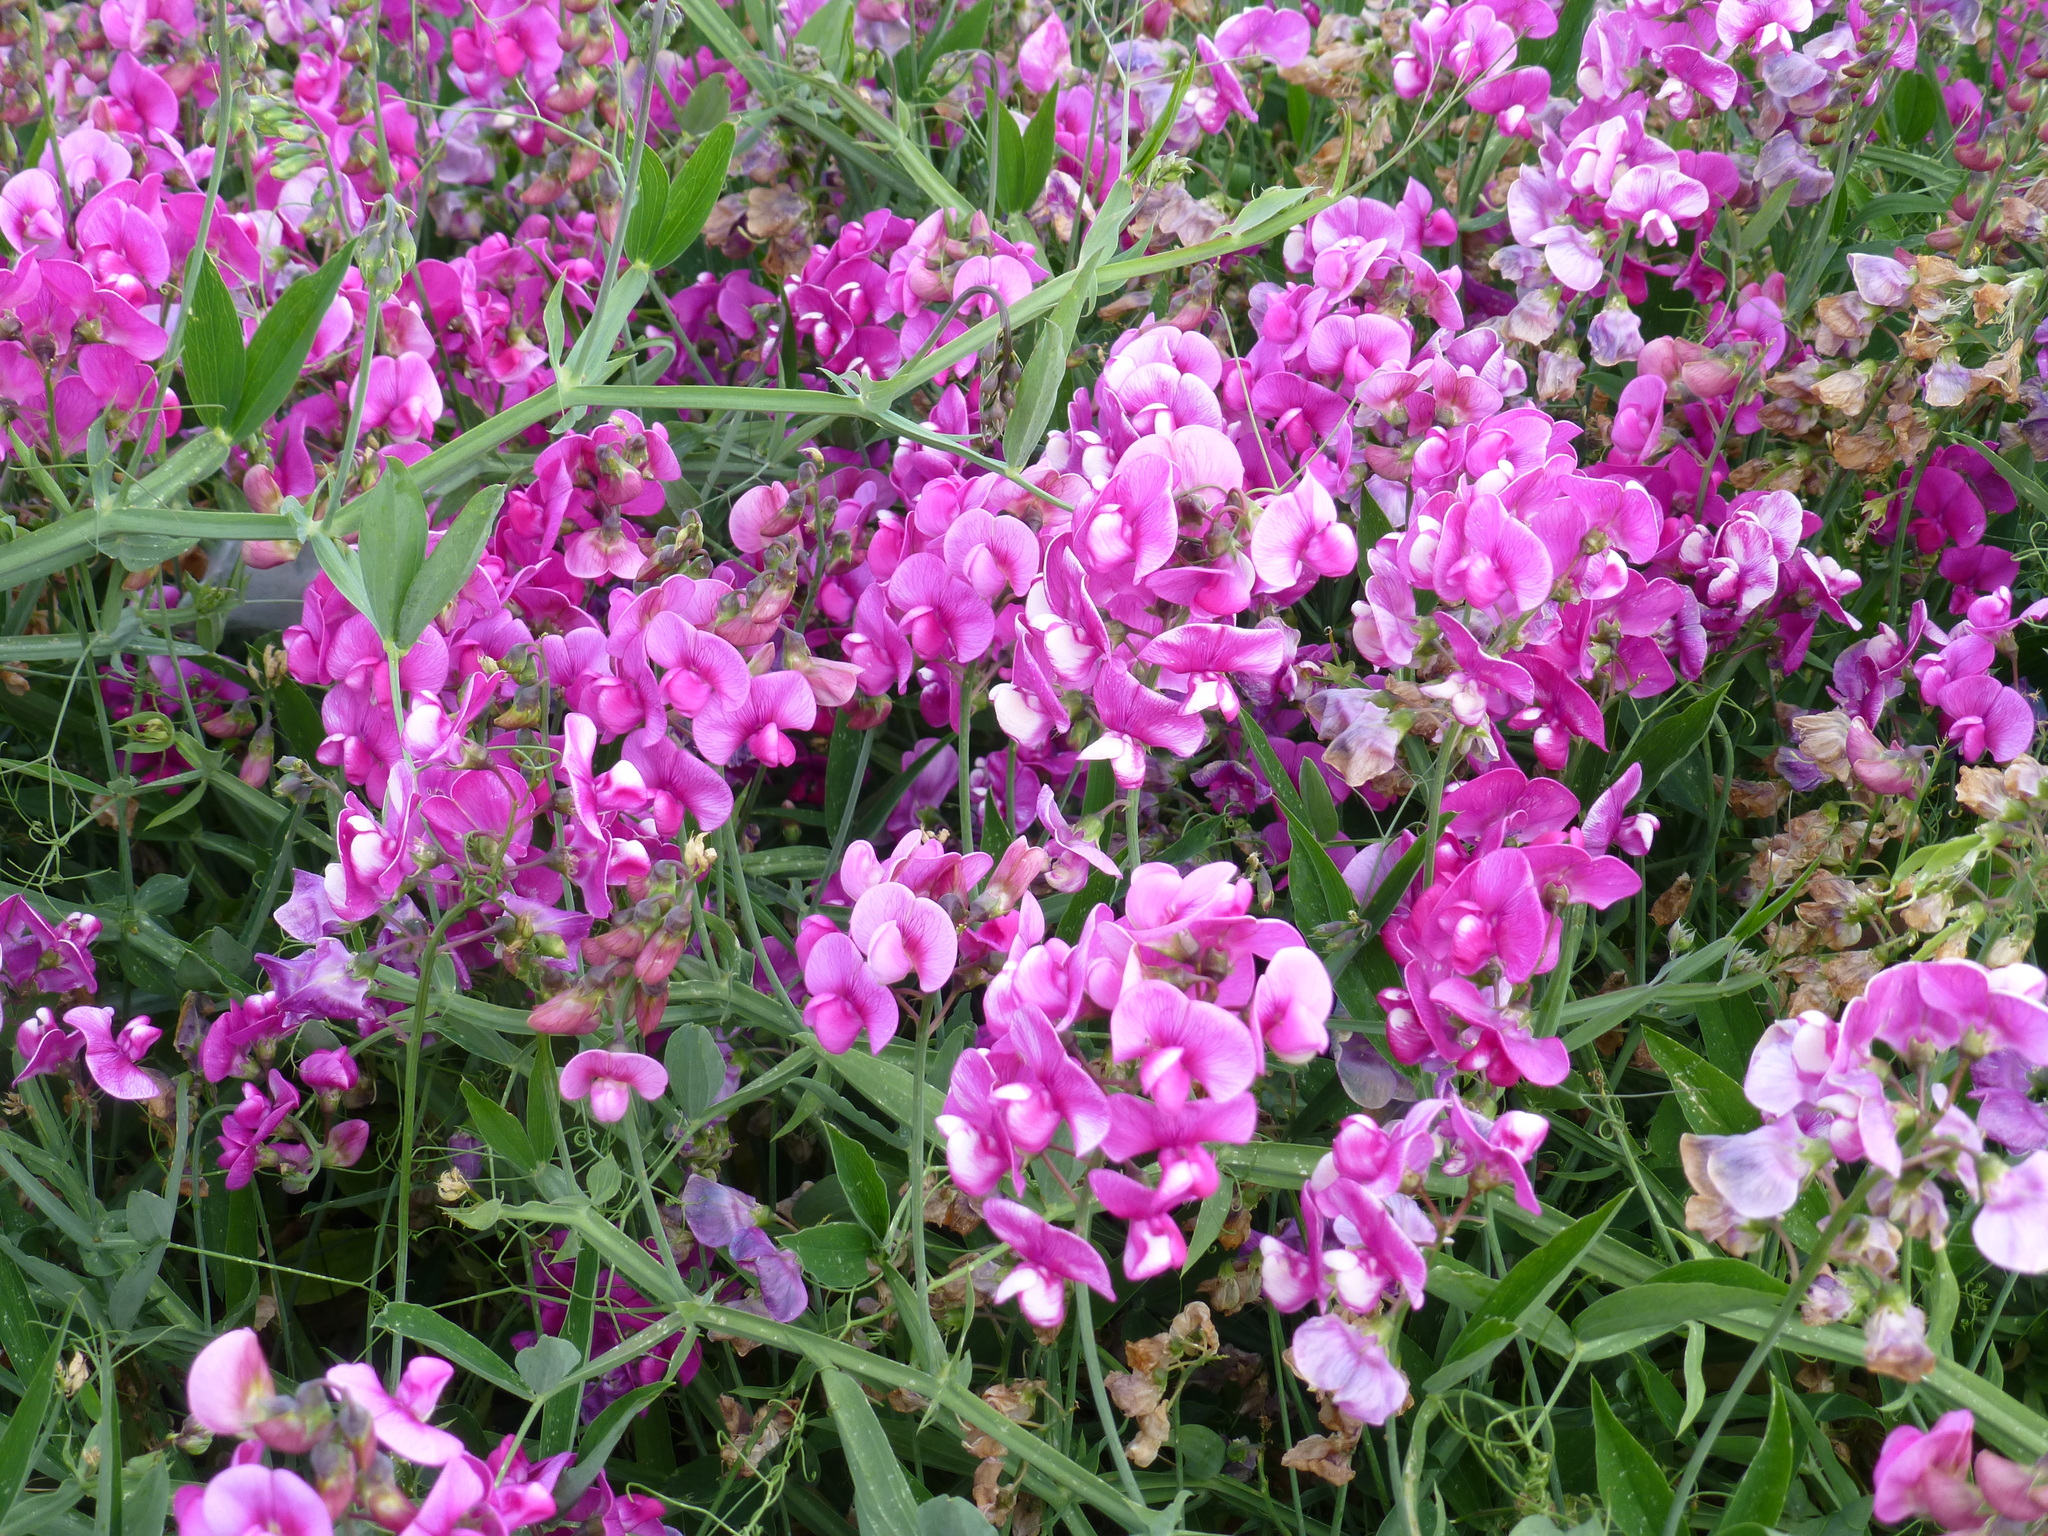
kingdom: Plantae
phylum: Tracheophyta
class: Magnoliopsida
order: Fabales
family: Fabaceae
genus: Lathyrus
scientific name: Lathyrus latifolius
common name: Perennial pea
